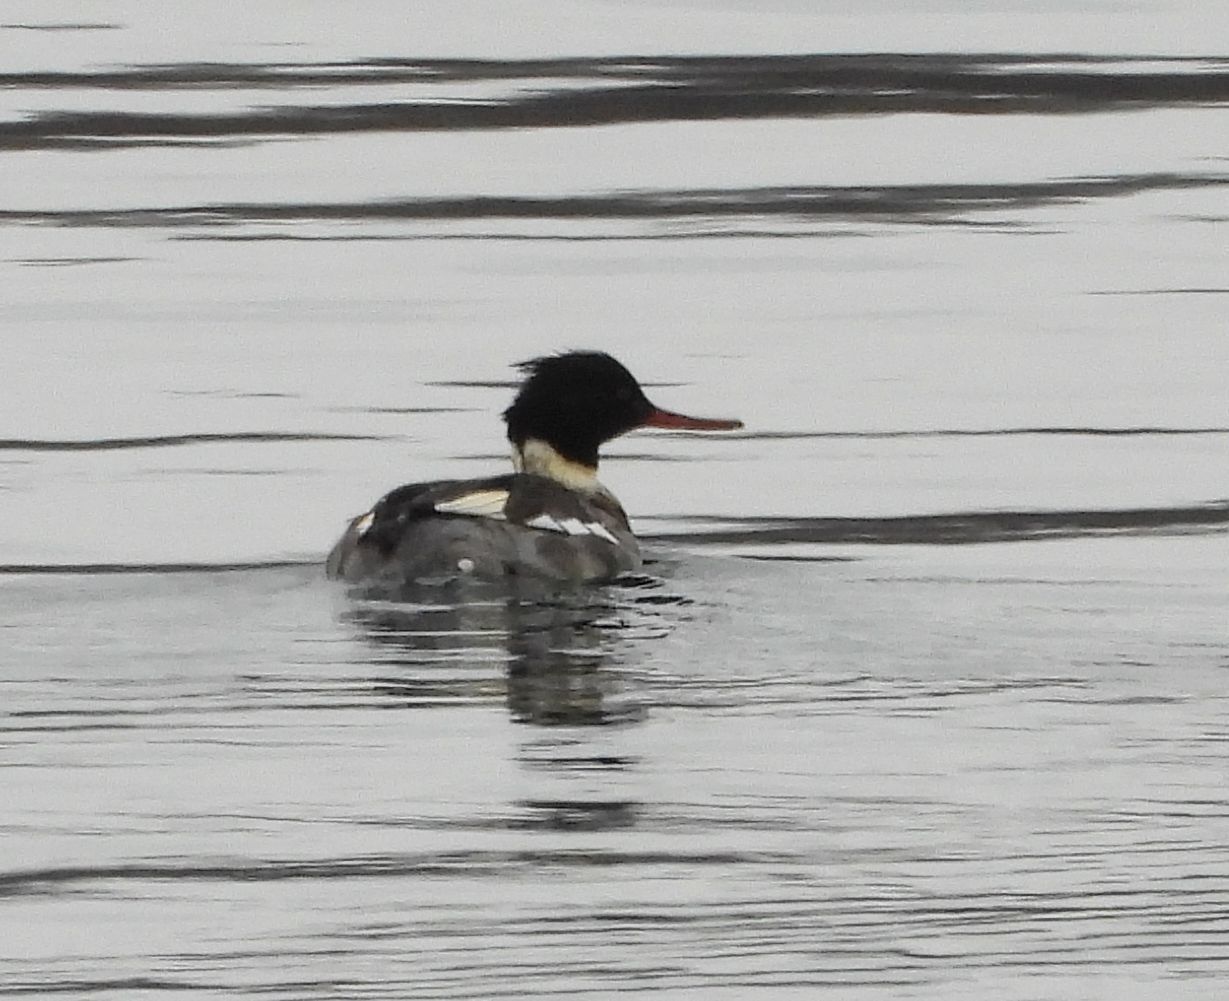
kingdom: Animalia
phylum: Chordata
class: Aves
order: Anseriformes
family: Anatidae
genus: Mergus
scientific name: Mergus serrator
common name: Red-breasted merganser
